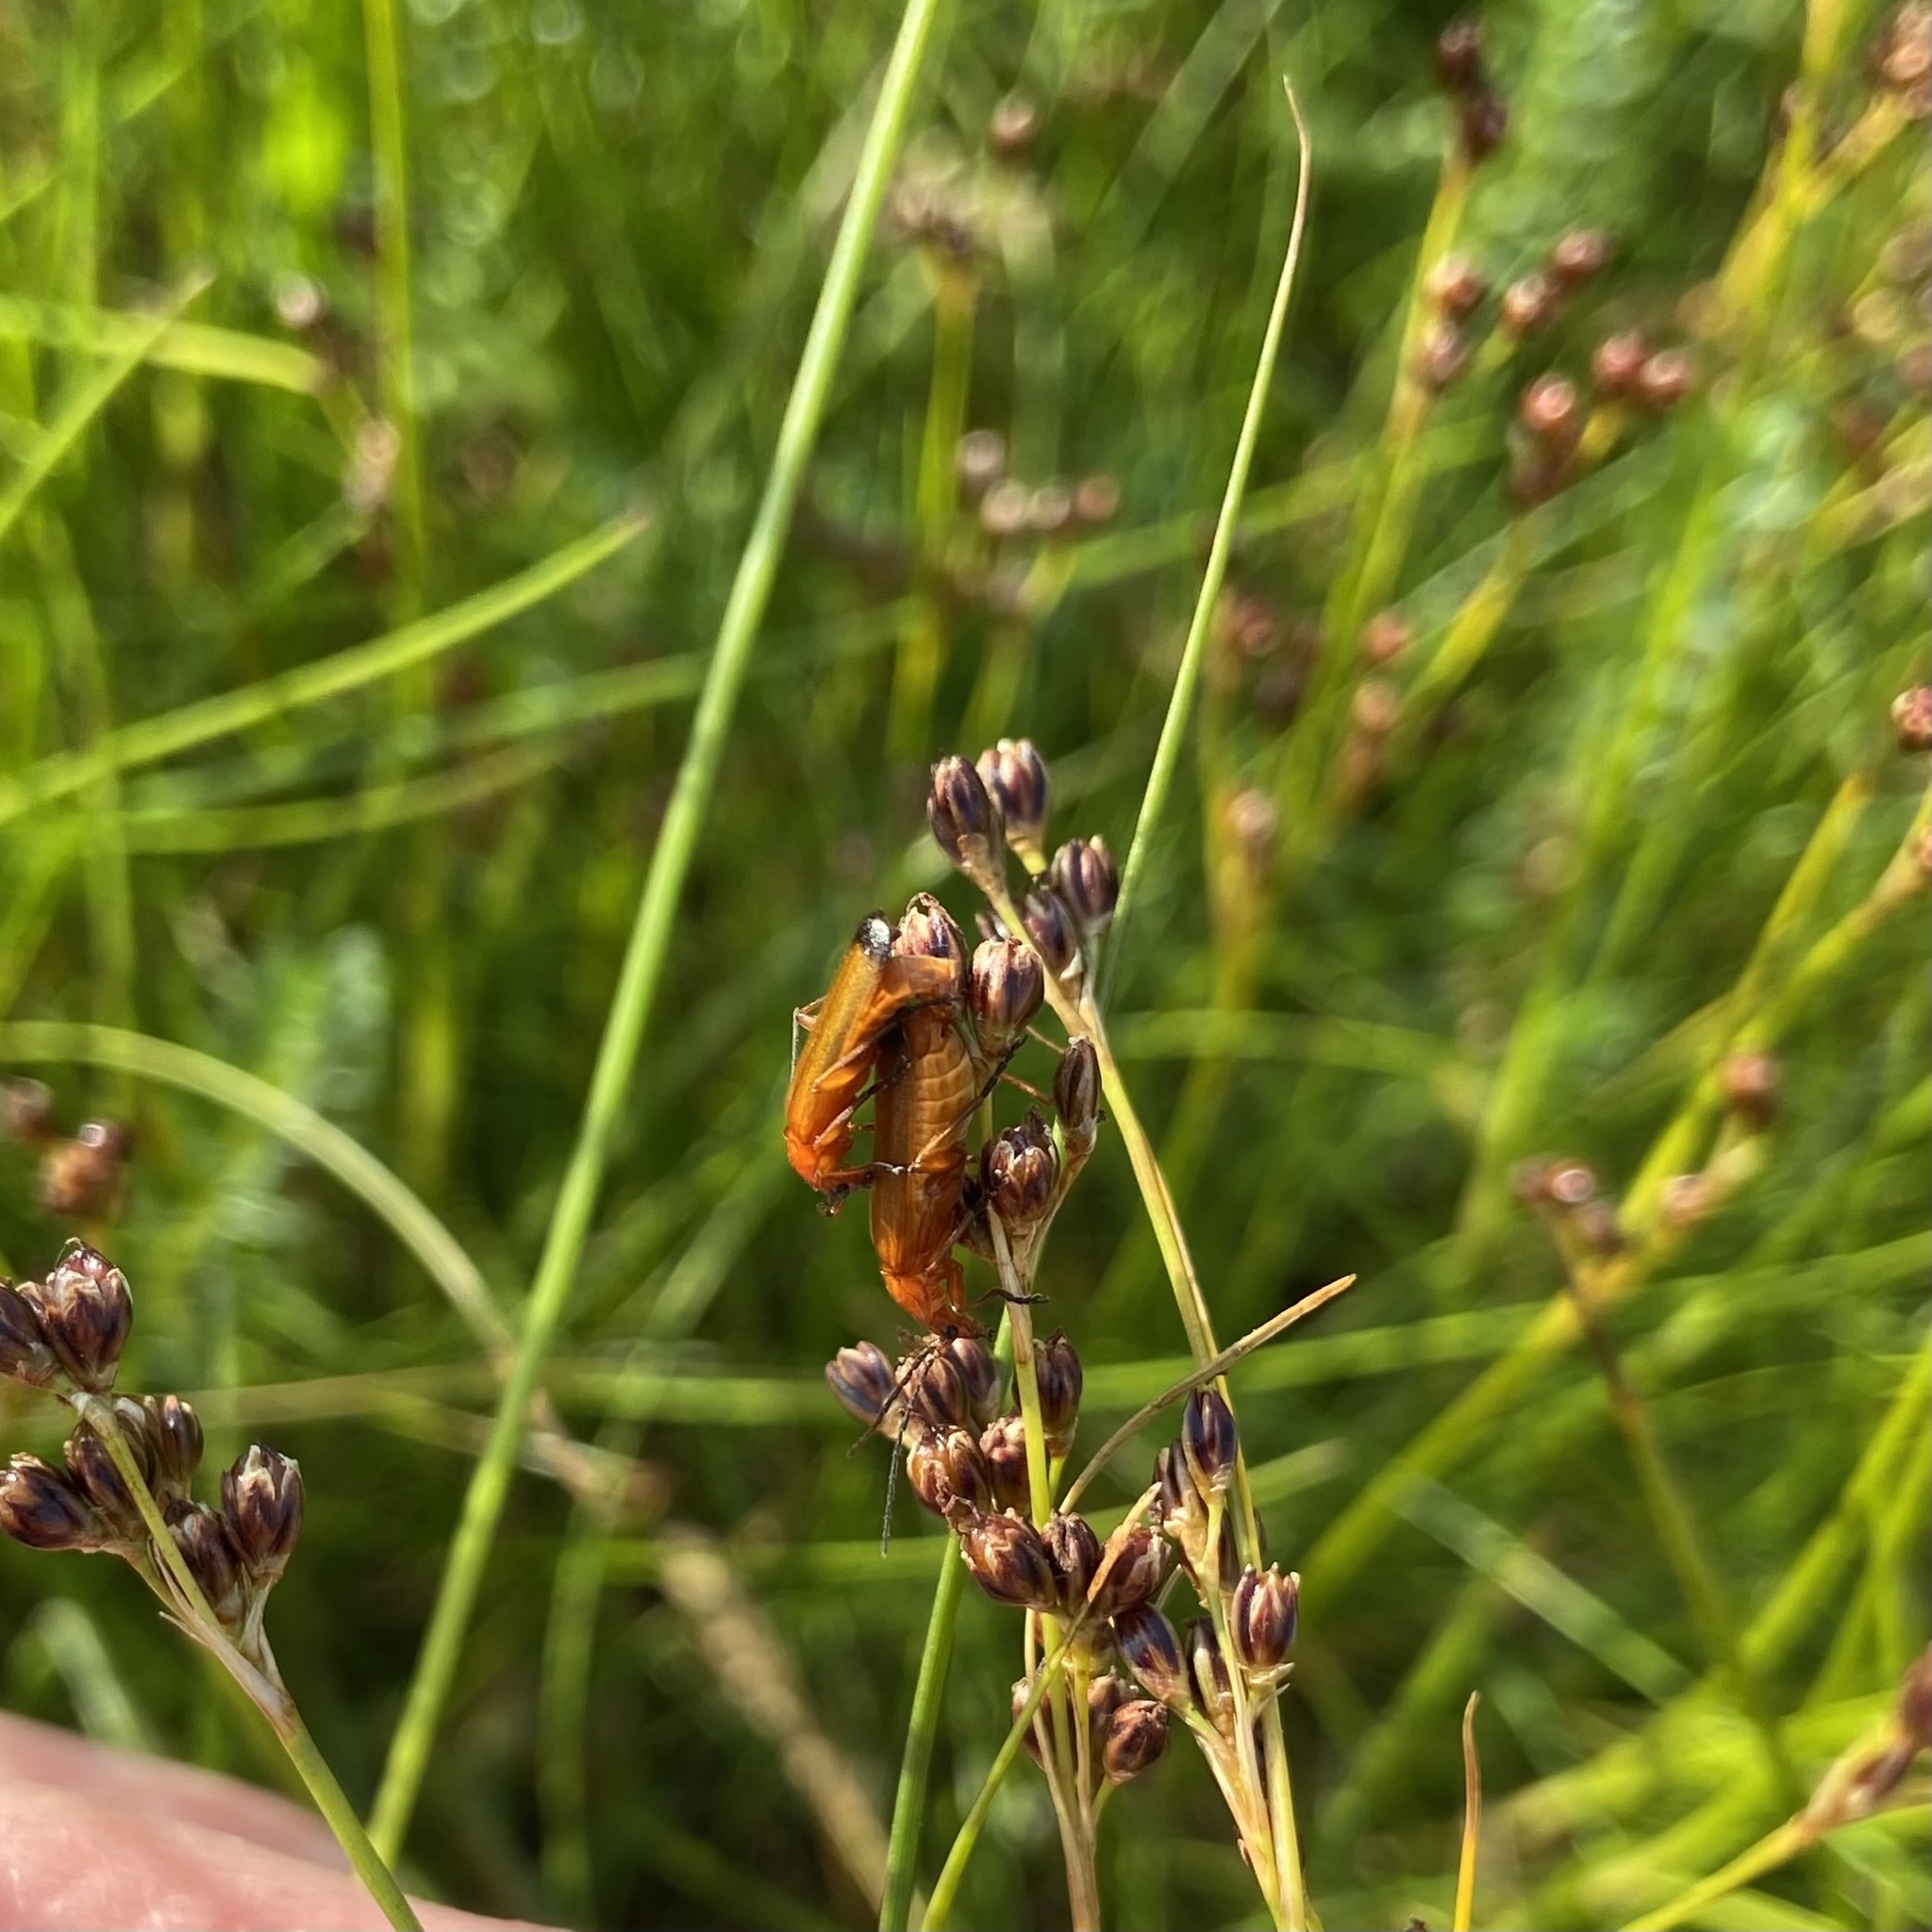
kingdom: Animalia
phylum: Arthropoda
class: Insecta
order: Coleoptera
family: Cantharidae
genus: Rhagonycha
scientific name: Rhagonycha fulva
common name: Common red soldier beetle
